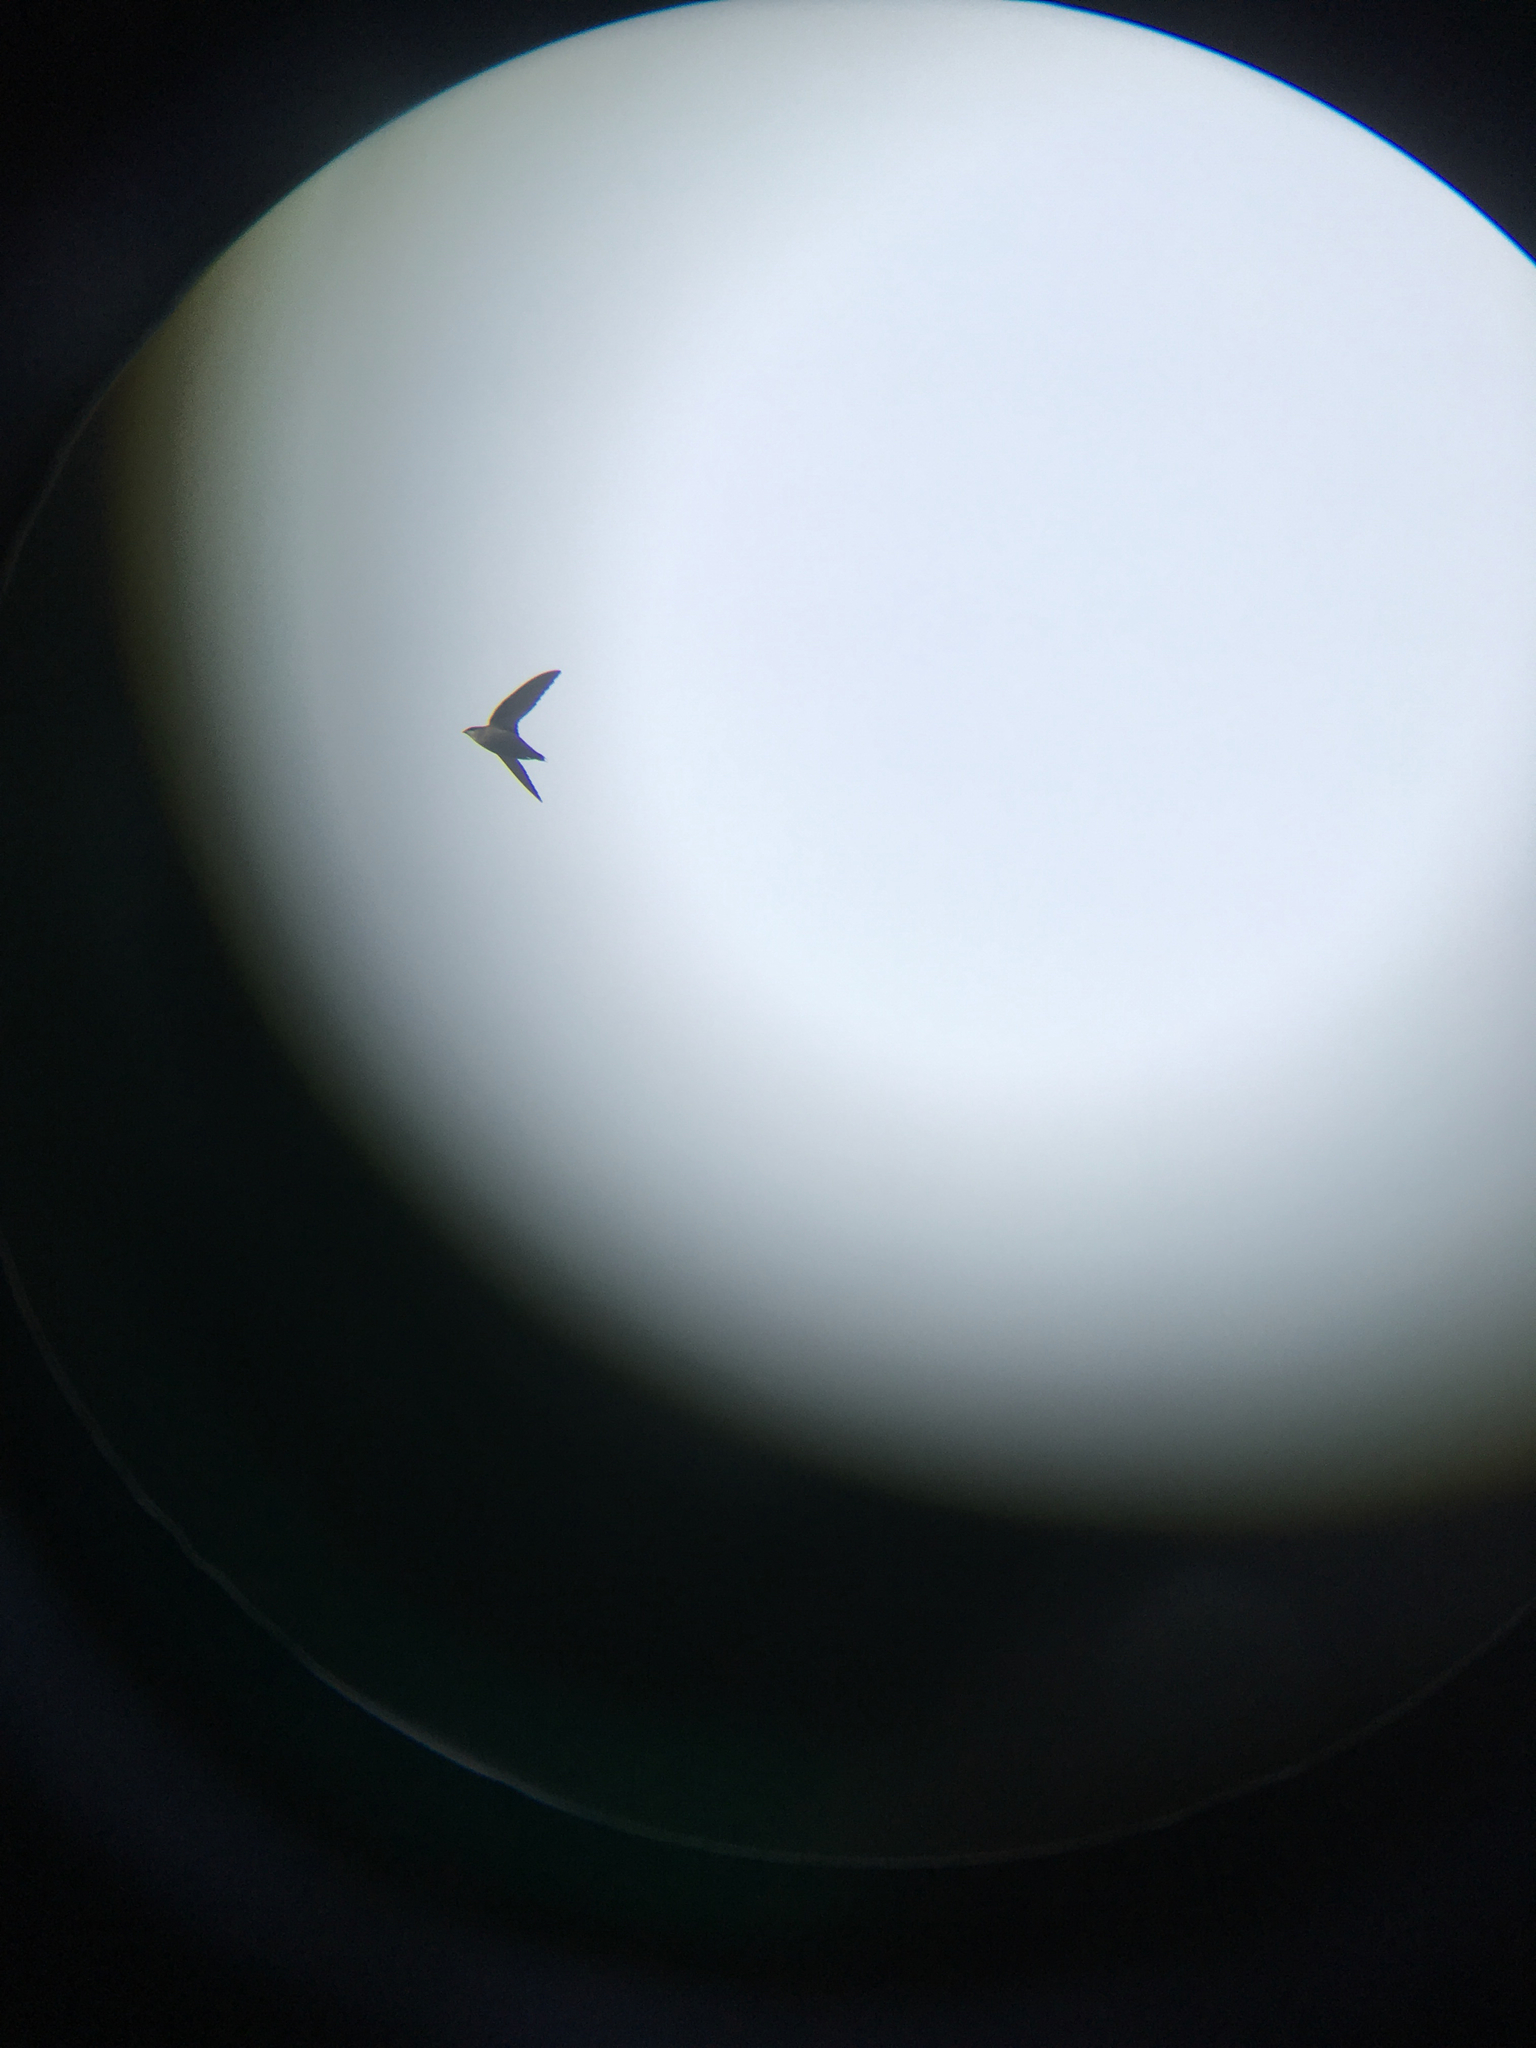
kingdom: Animalia
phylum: Chordata
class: Aves
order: Apodiformes
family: Apodidae
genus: Chaetura
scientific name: Chaetura pelagica
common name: Chimney swift
